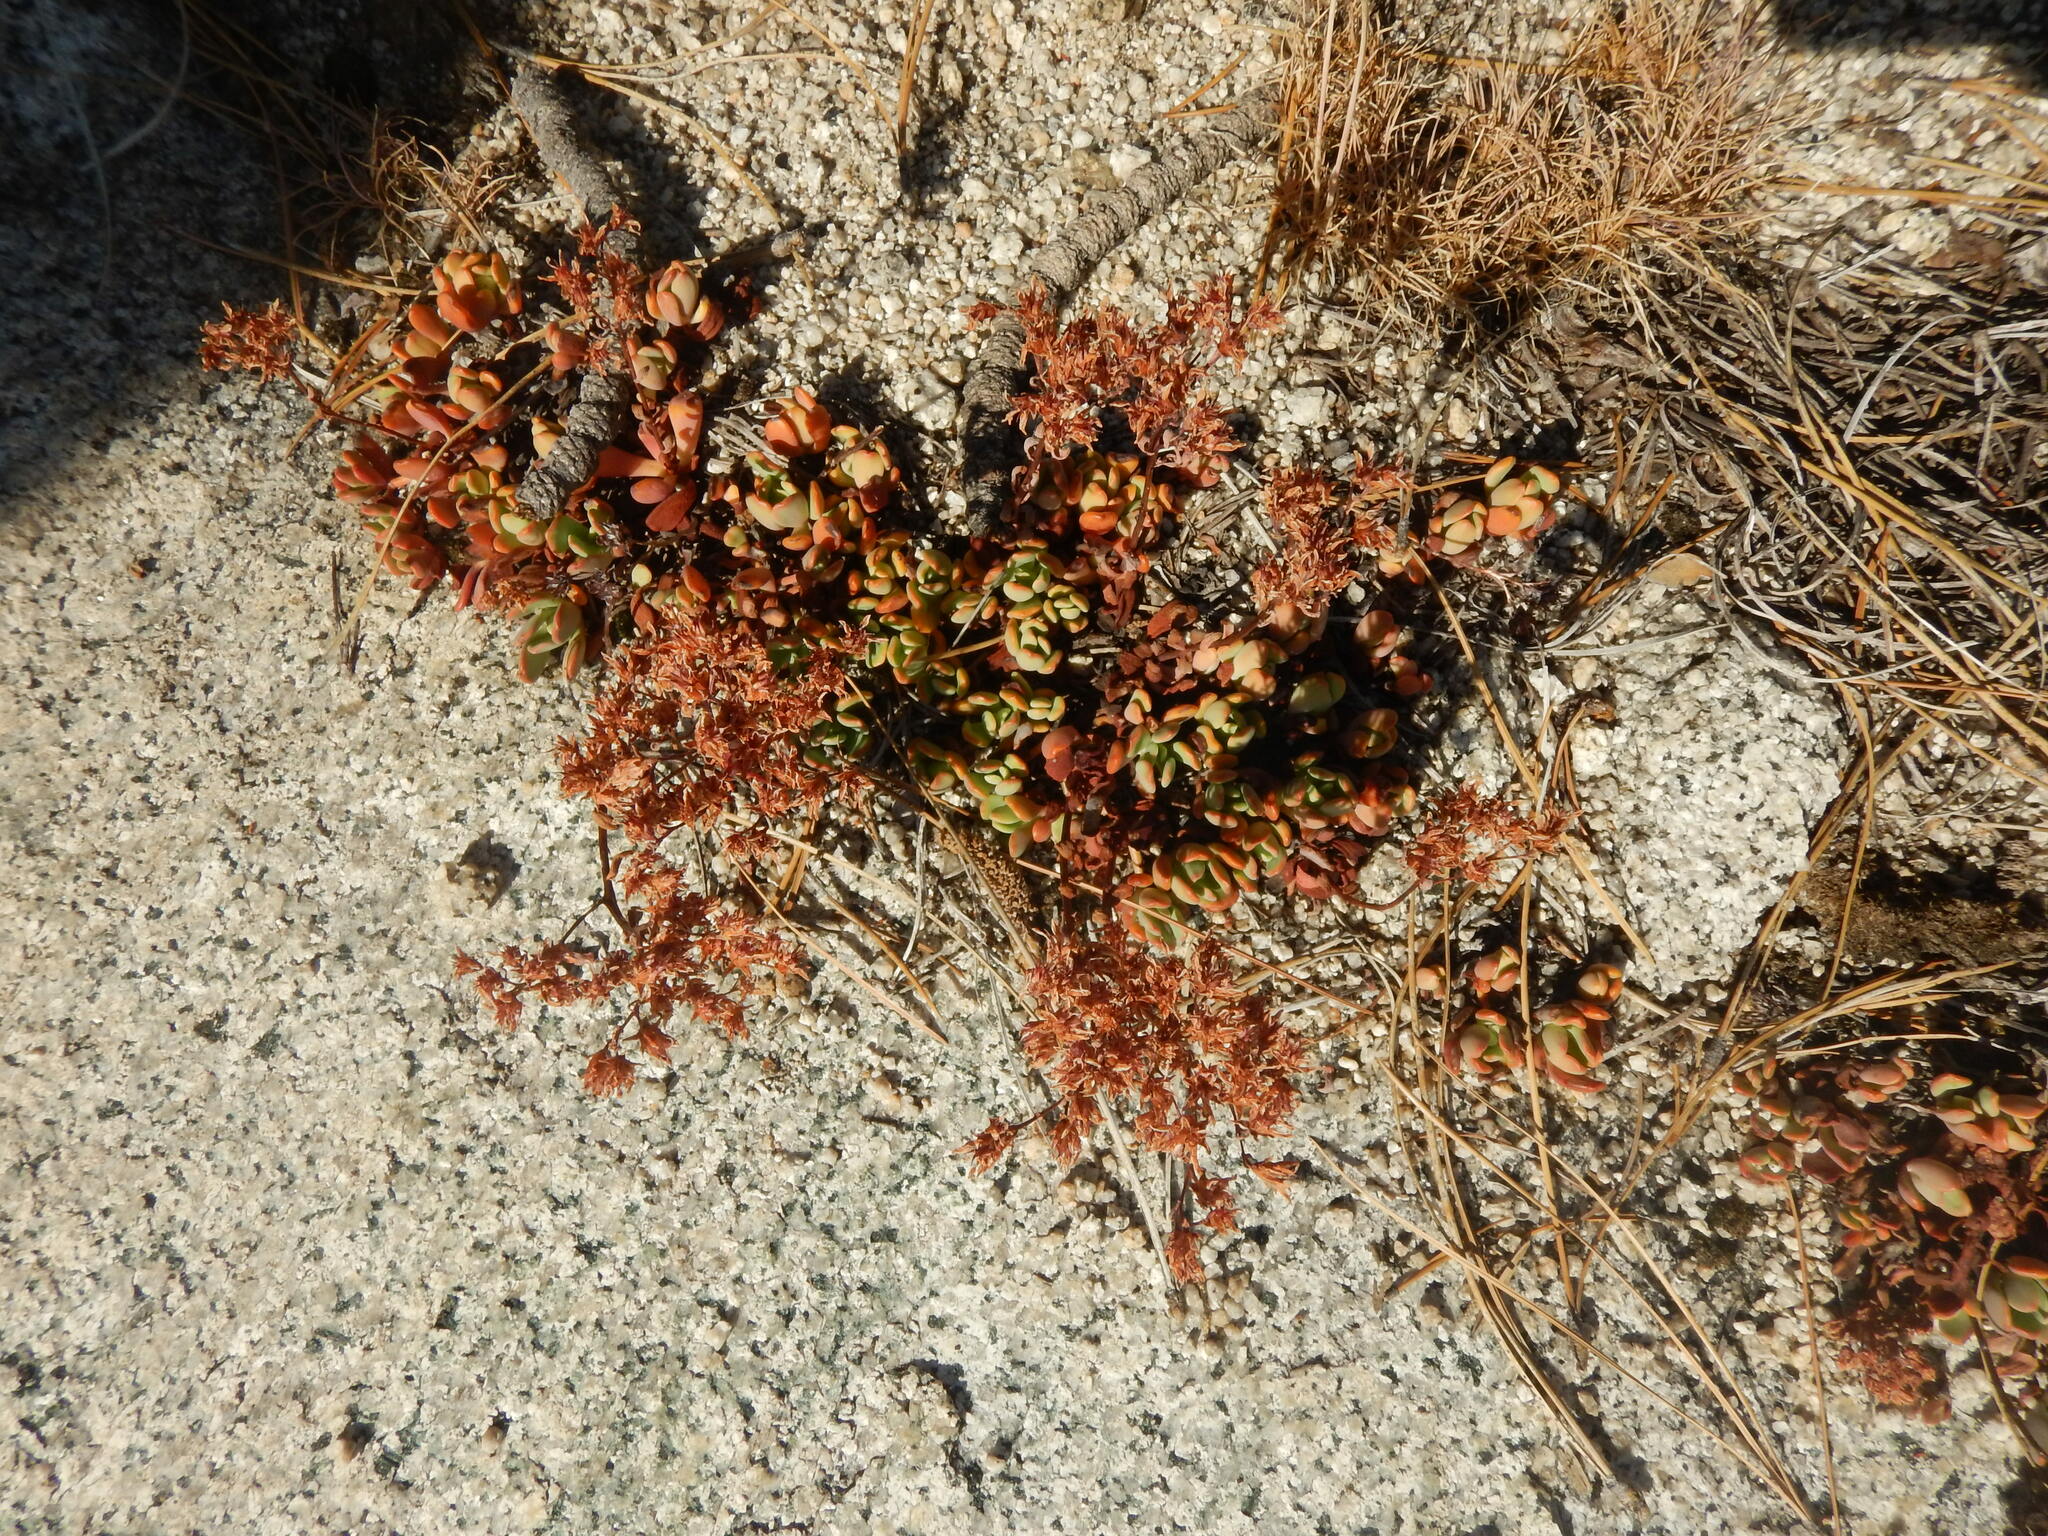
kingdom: Plantae
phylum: Tracheophyta
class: Magnoliopsida
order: Saxifragales
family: Crassulaceae
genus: Sedum
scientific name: Sedum obtusatum
